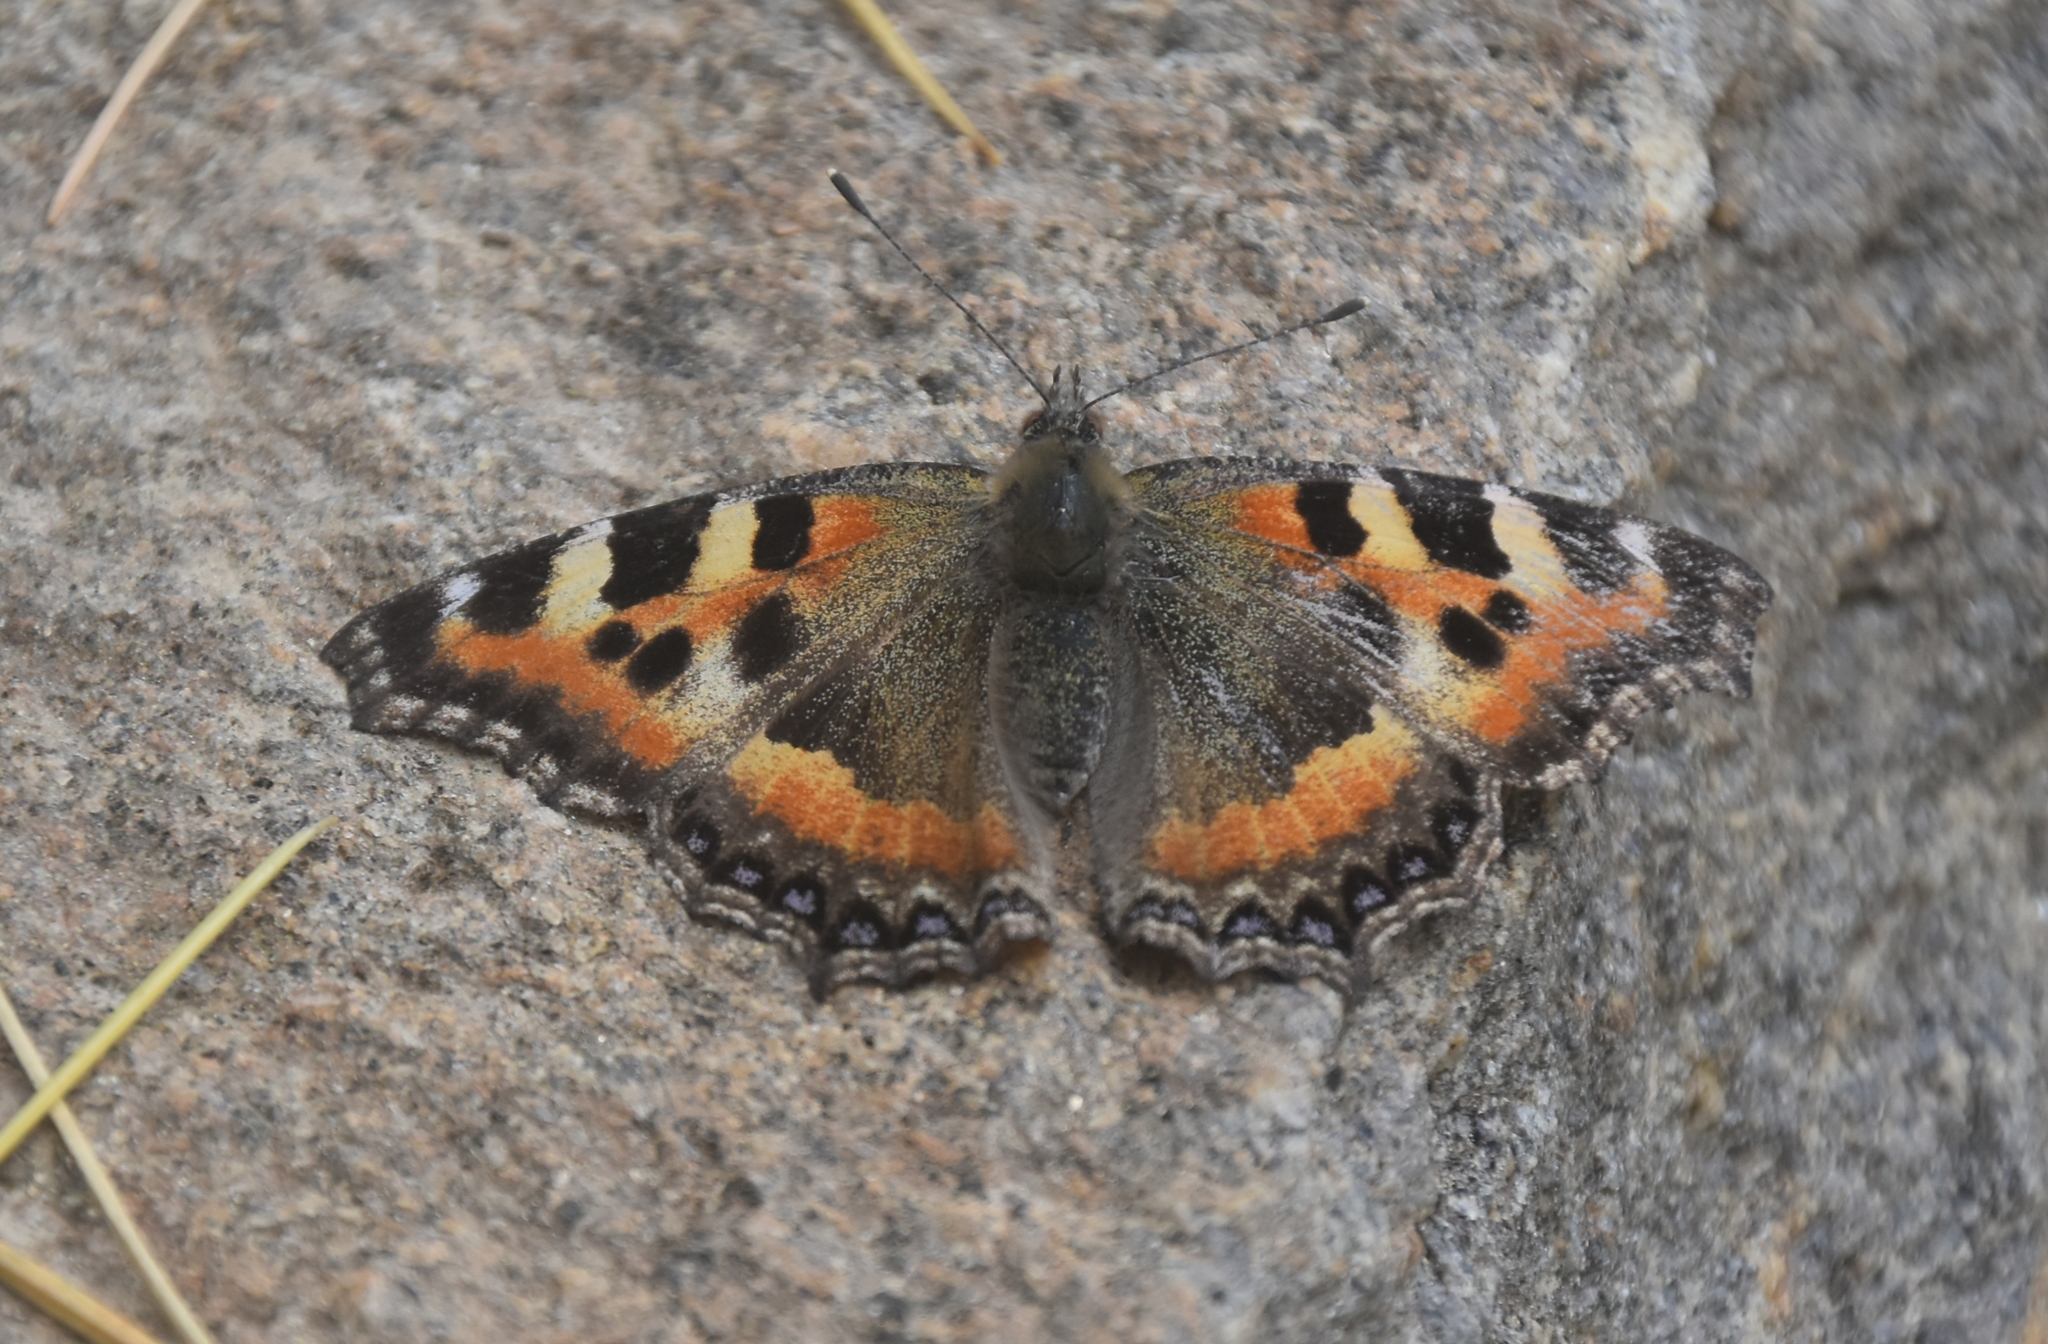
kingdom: Animalia
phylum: Arthropoda
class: Insecta
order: Lepidoptera
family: Nymphalidae
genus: Aglais
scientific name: Aglais caschmirensis
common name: Indian tortoiseshell
